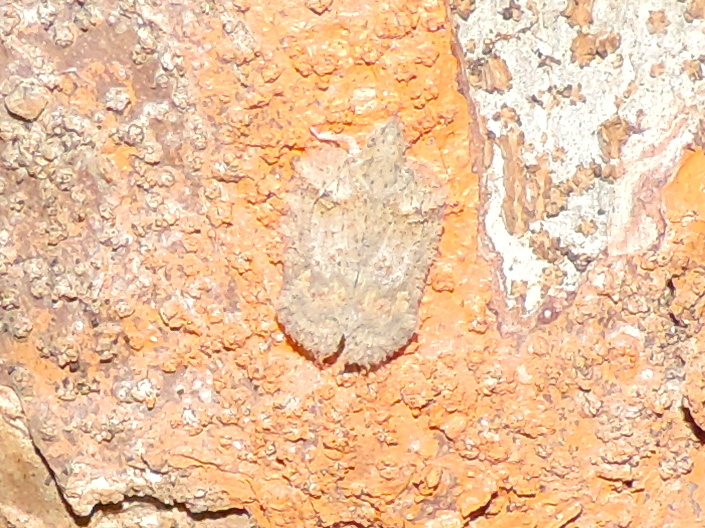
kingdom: Animalia
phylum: Arthropoda
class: Insecta
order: Hemiptera
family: Flatidae
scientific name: Flatidae
